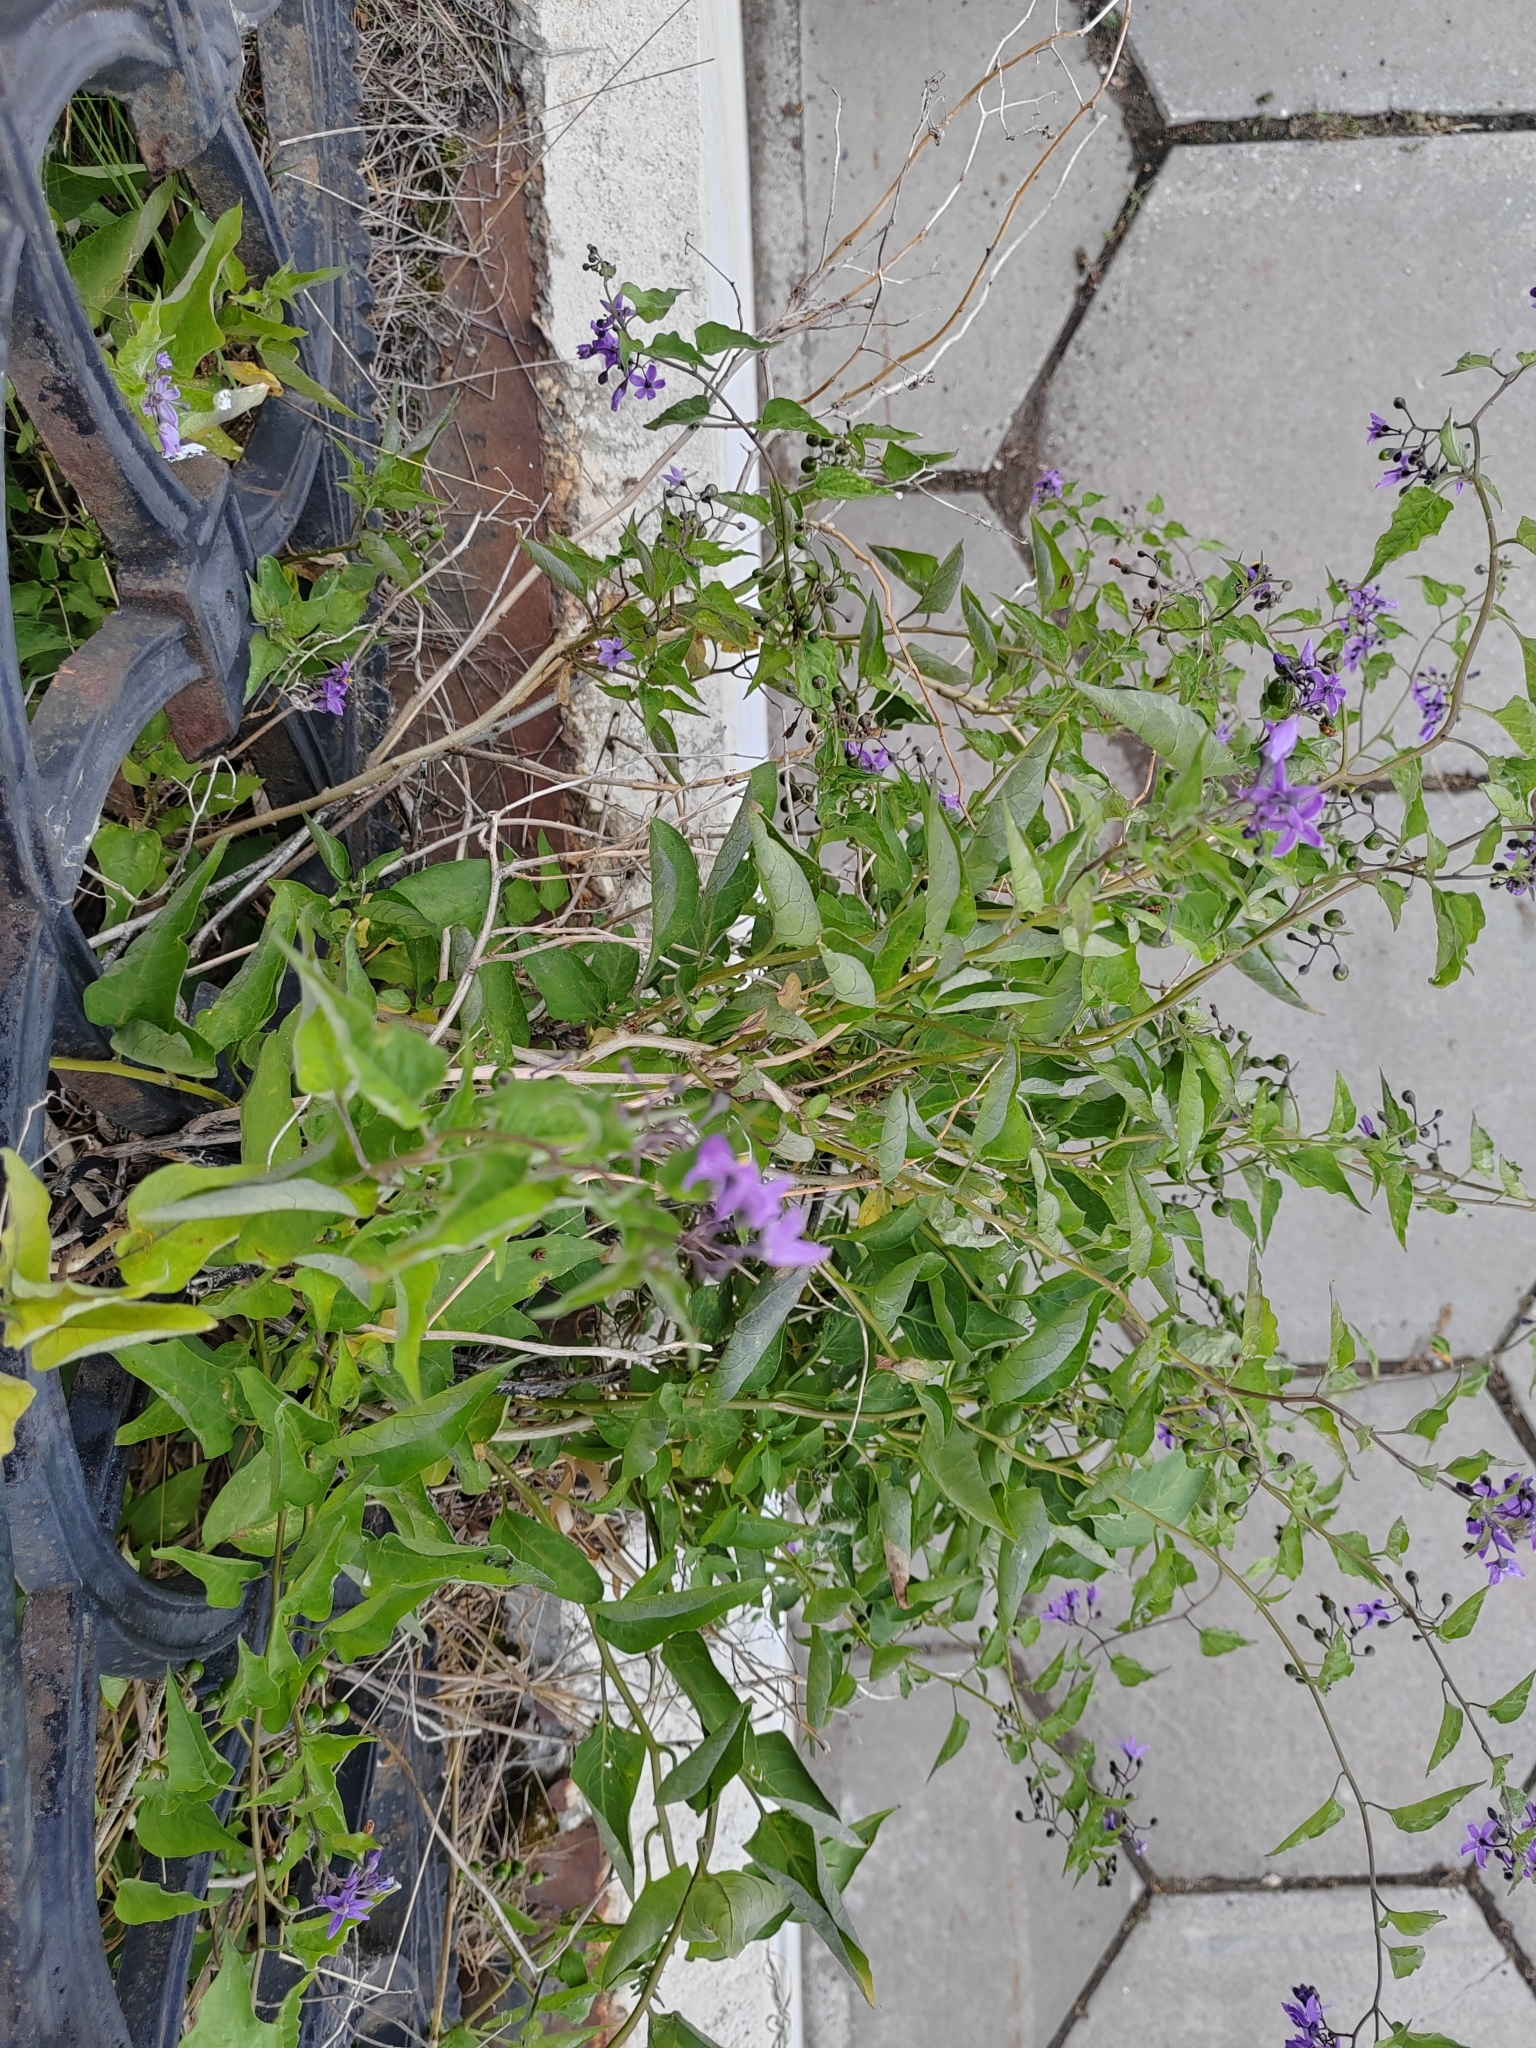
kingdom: Plantae
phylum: Tracheophyta
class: Magnoliopsida
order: Solanales
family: Solanaceae
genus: Solanum
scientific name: Solanum dulcamara
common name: Climbing nightshade
